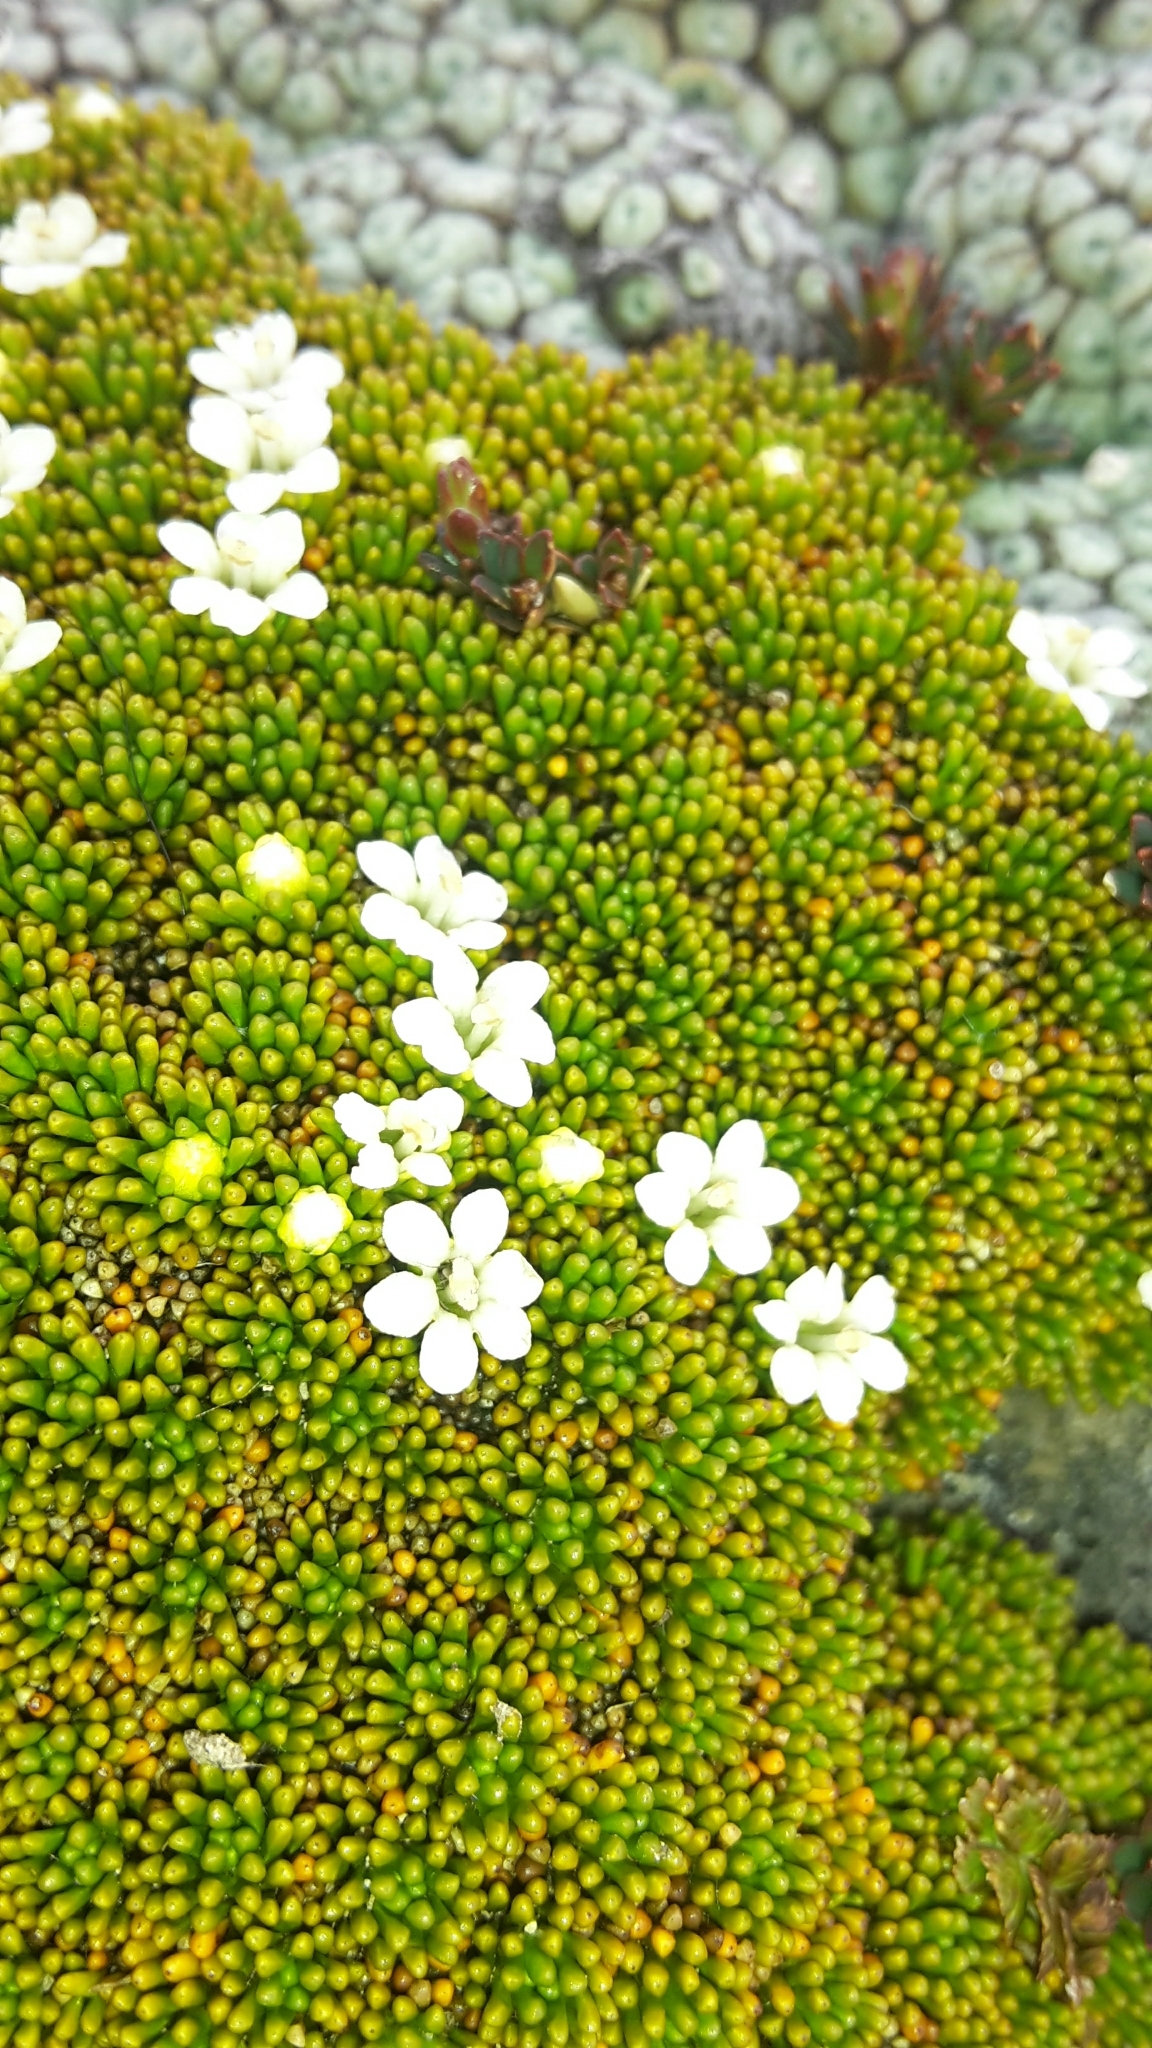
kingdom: Plantae
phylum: Tracheophyta
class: Magnoliopsida
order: Asterales
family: Stylidiaceae
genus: Phyllachne
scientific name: Phyllachne colensoi
